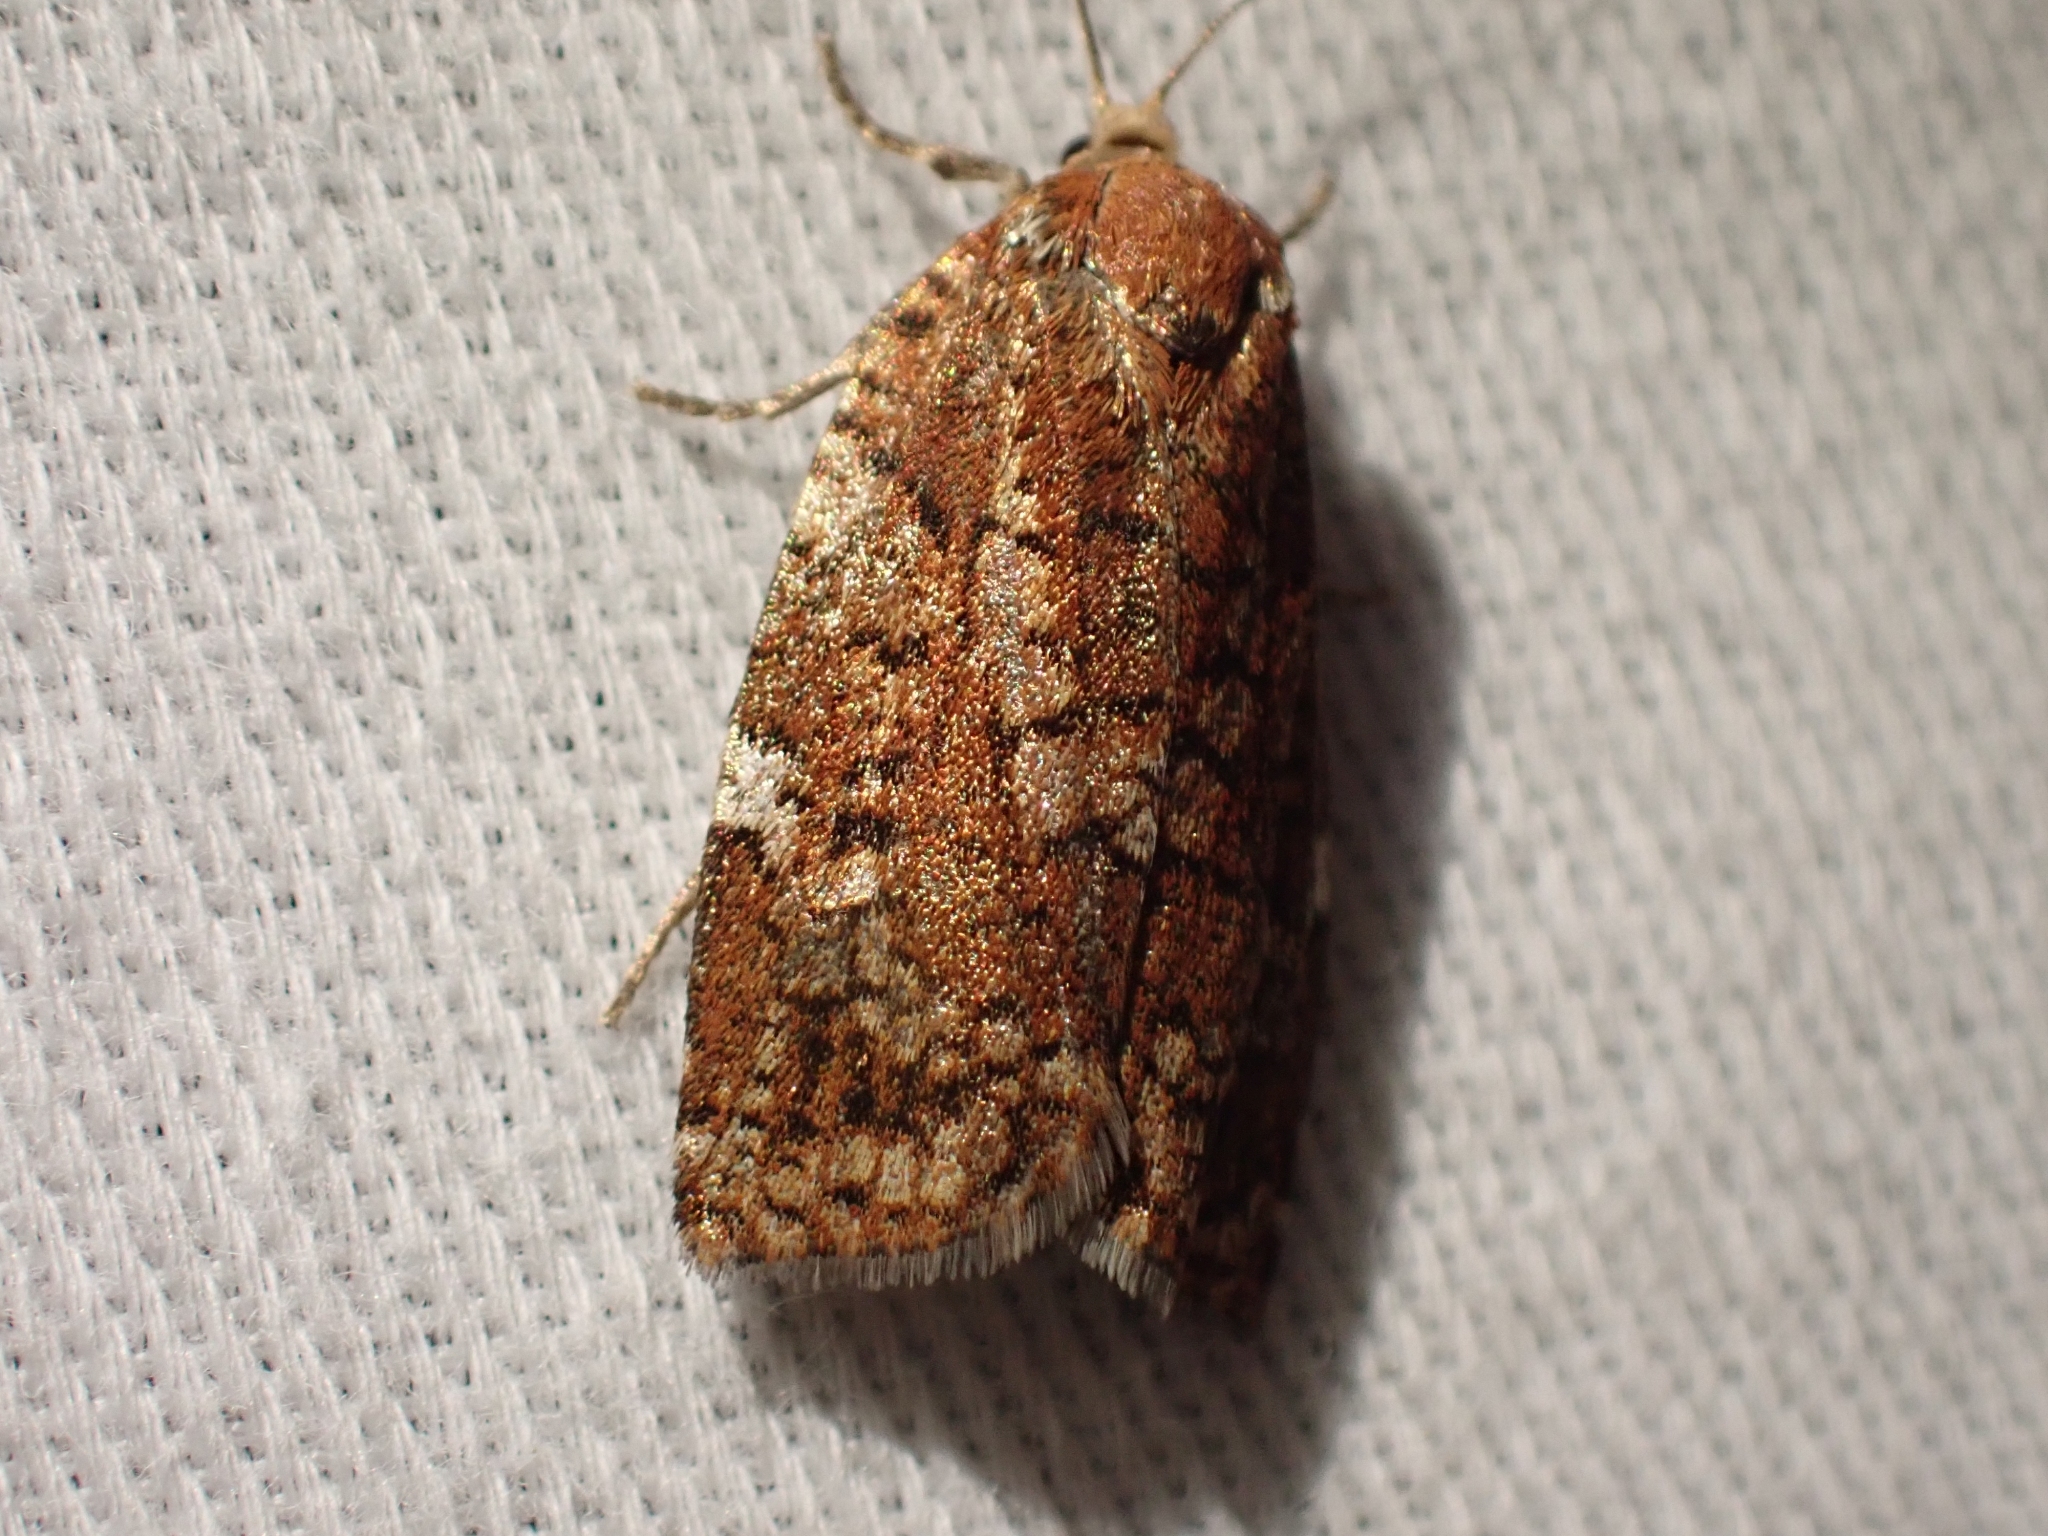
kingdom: Animalia
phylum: Arthropoda
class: Insecta
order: Lepidoptera
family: Tortricidae
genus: Choristoneura
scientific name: Choristoneura occidentalis
